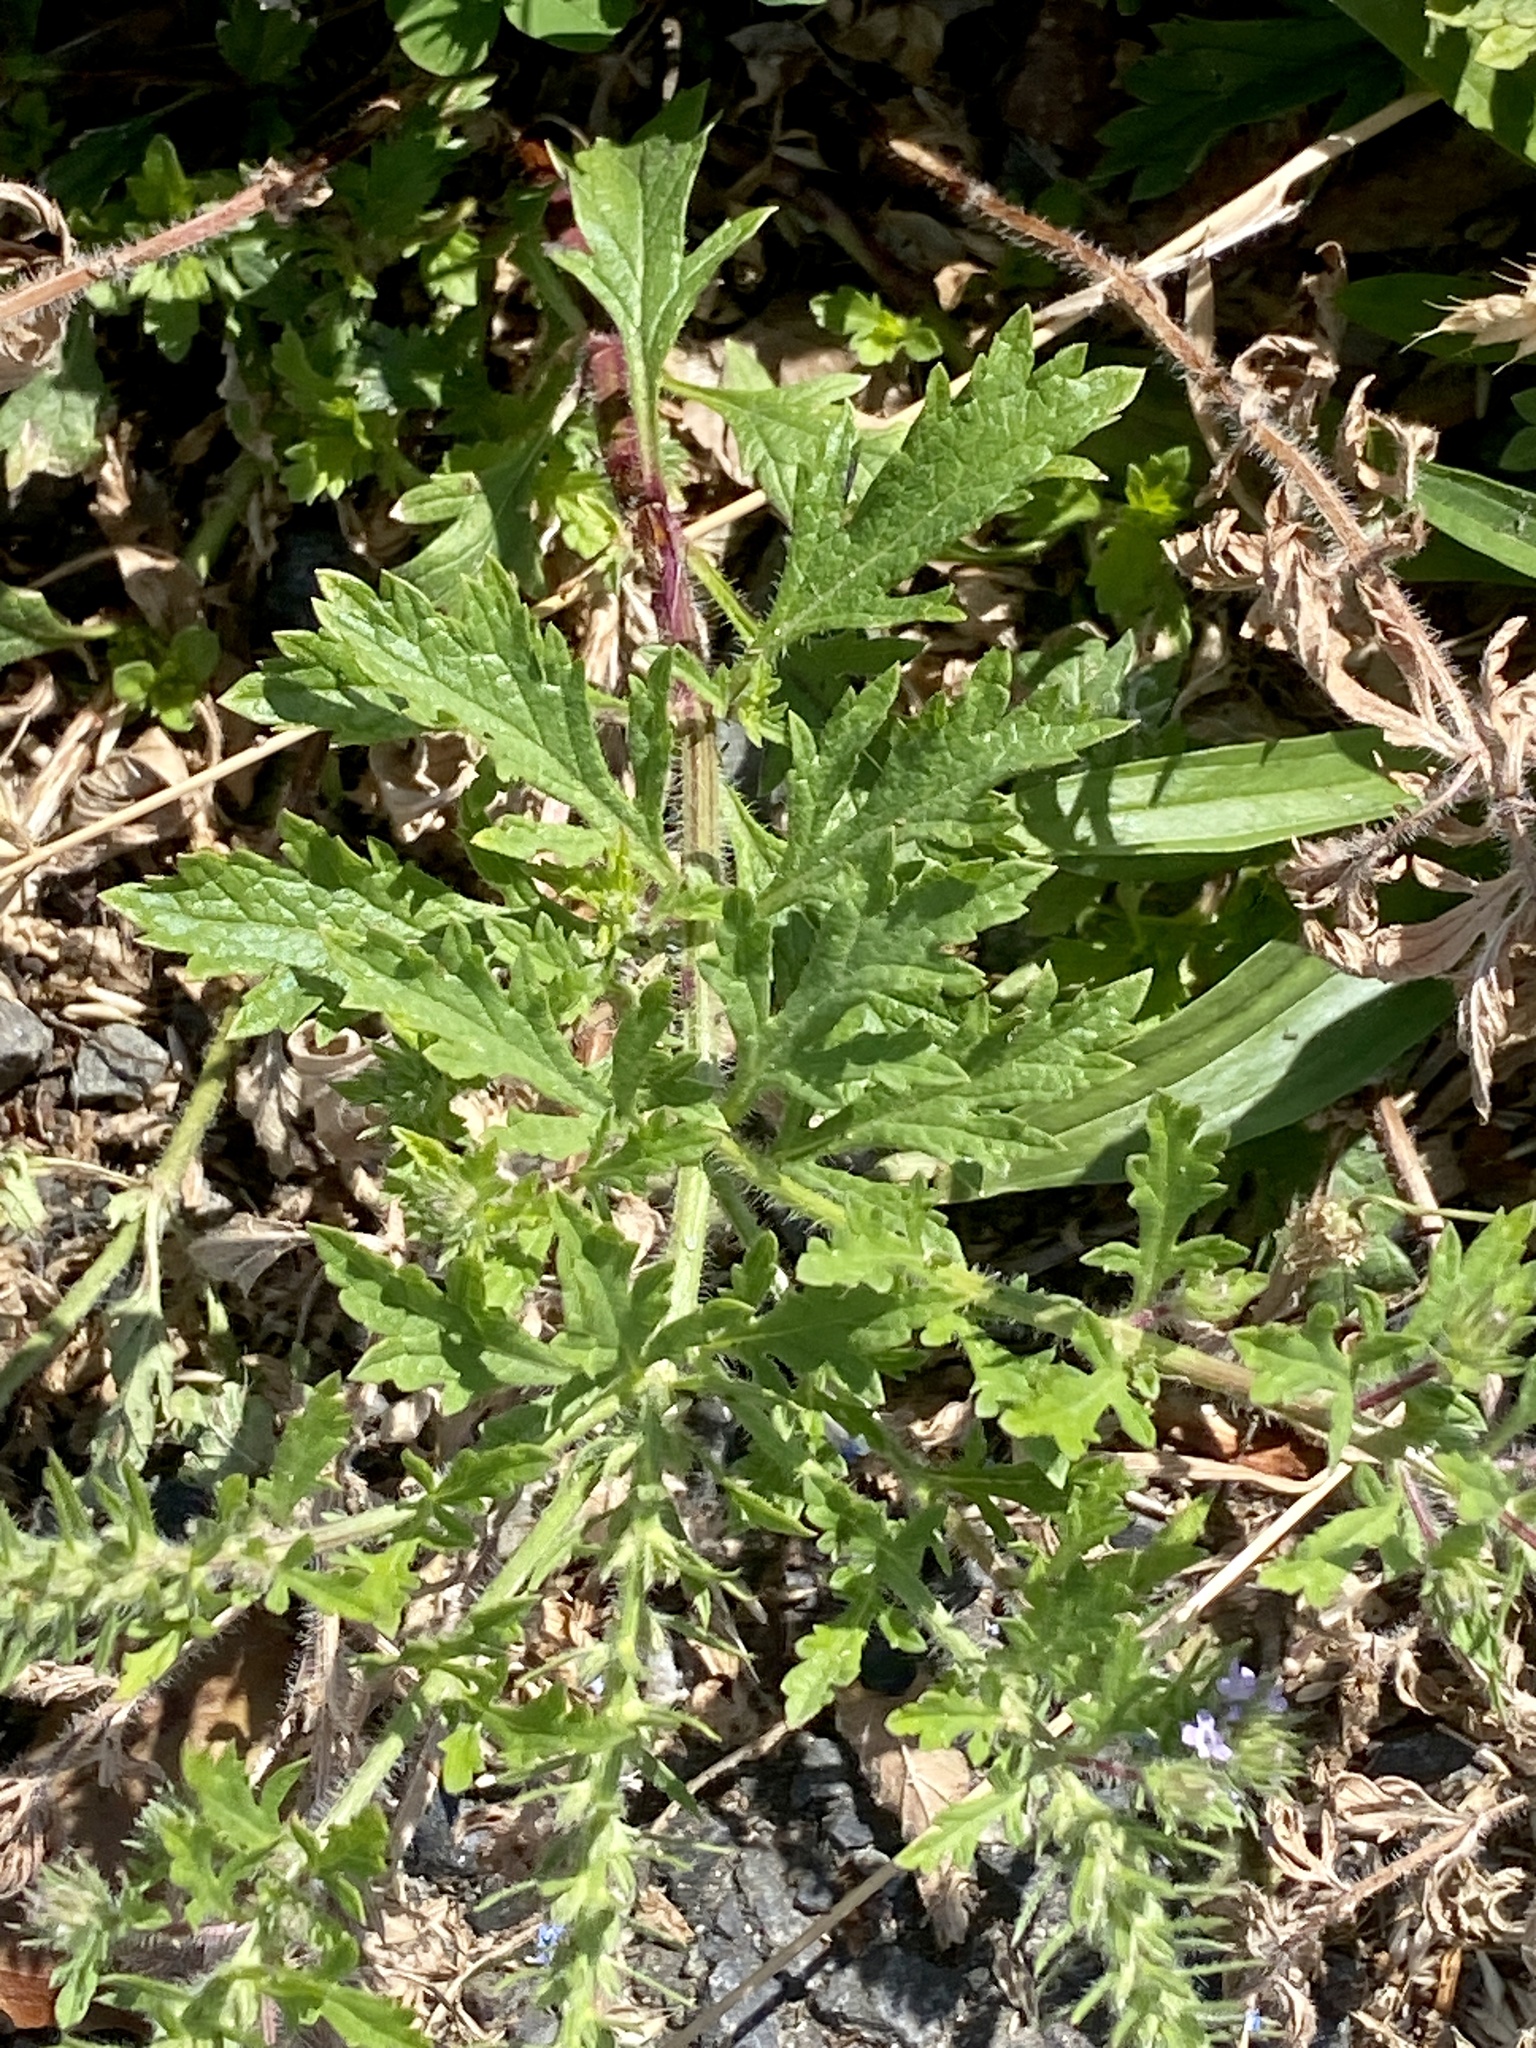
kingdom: Plantae
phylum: Tracheophyta
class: Magnoliopsida
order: Lamiales
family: Verbenaceae
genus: Verbena
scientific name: Verbena bracteata
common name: Bracted vervain
